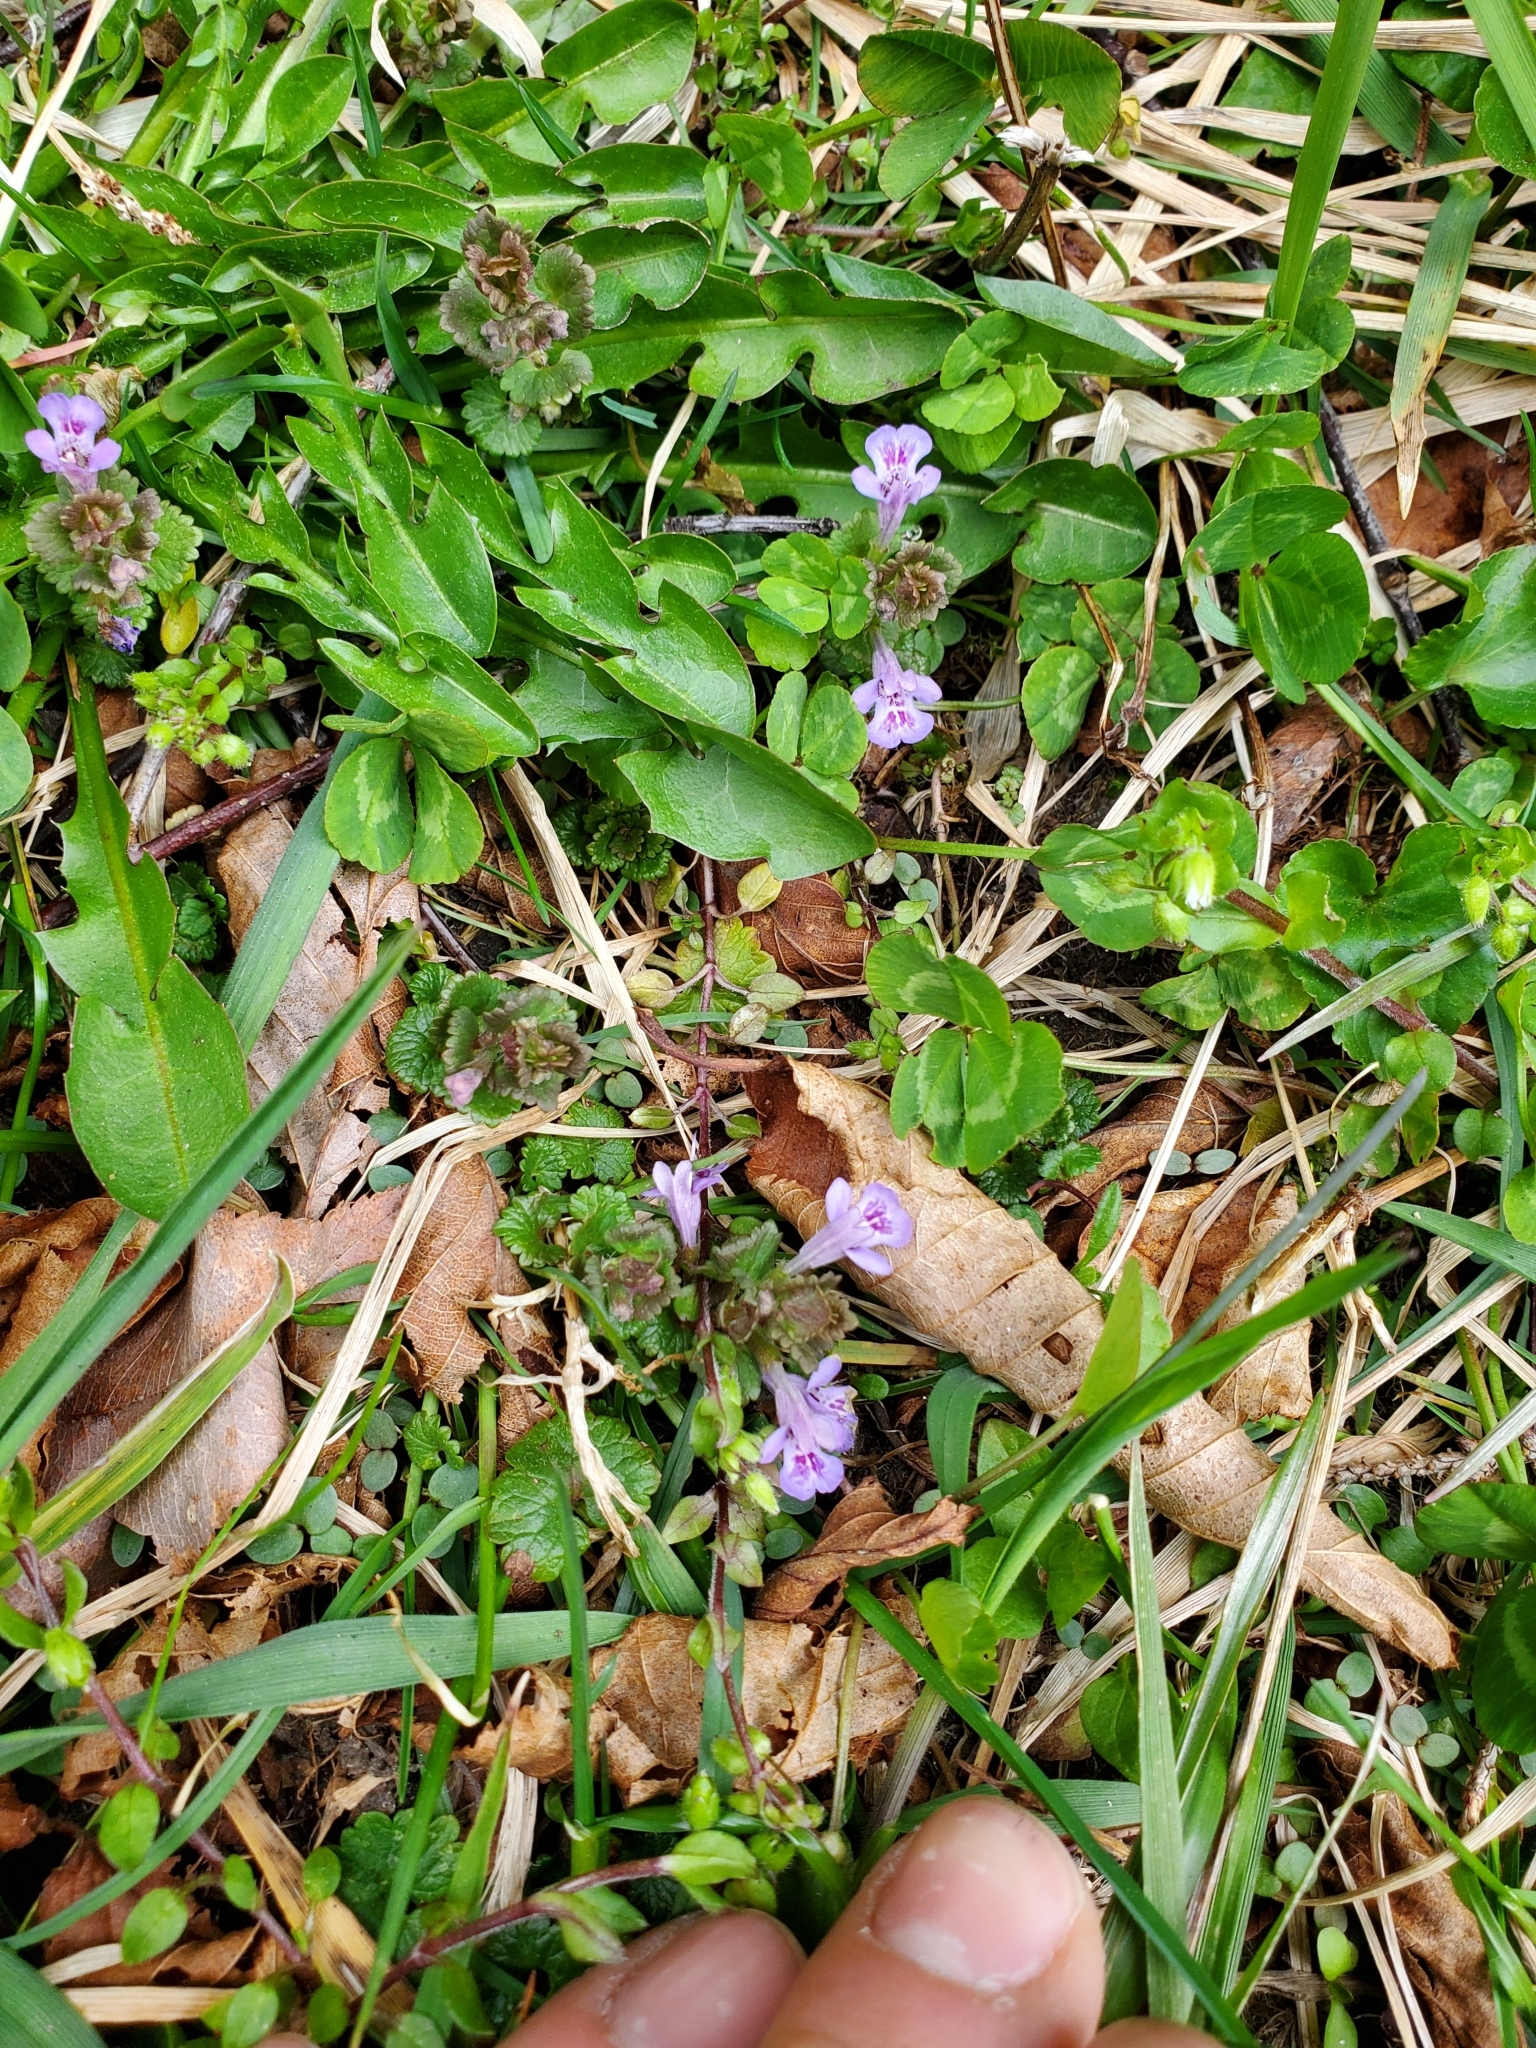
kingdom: Plantae
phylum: Tracheophyta
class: Magnoliopsida
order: Lamiales
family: Lamiaceae
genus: Glechoma
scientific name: Glechoma hederacea
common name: Ground ivy
